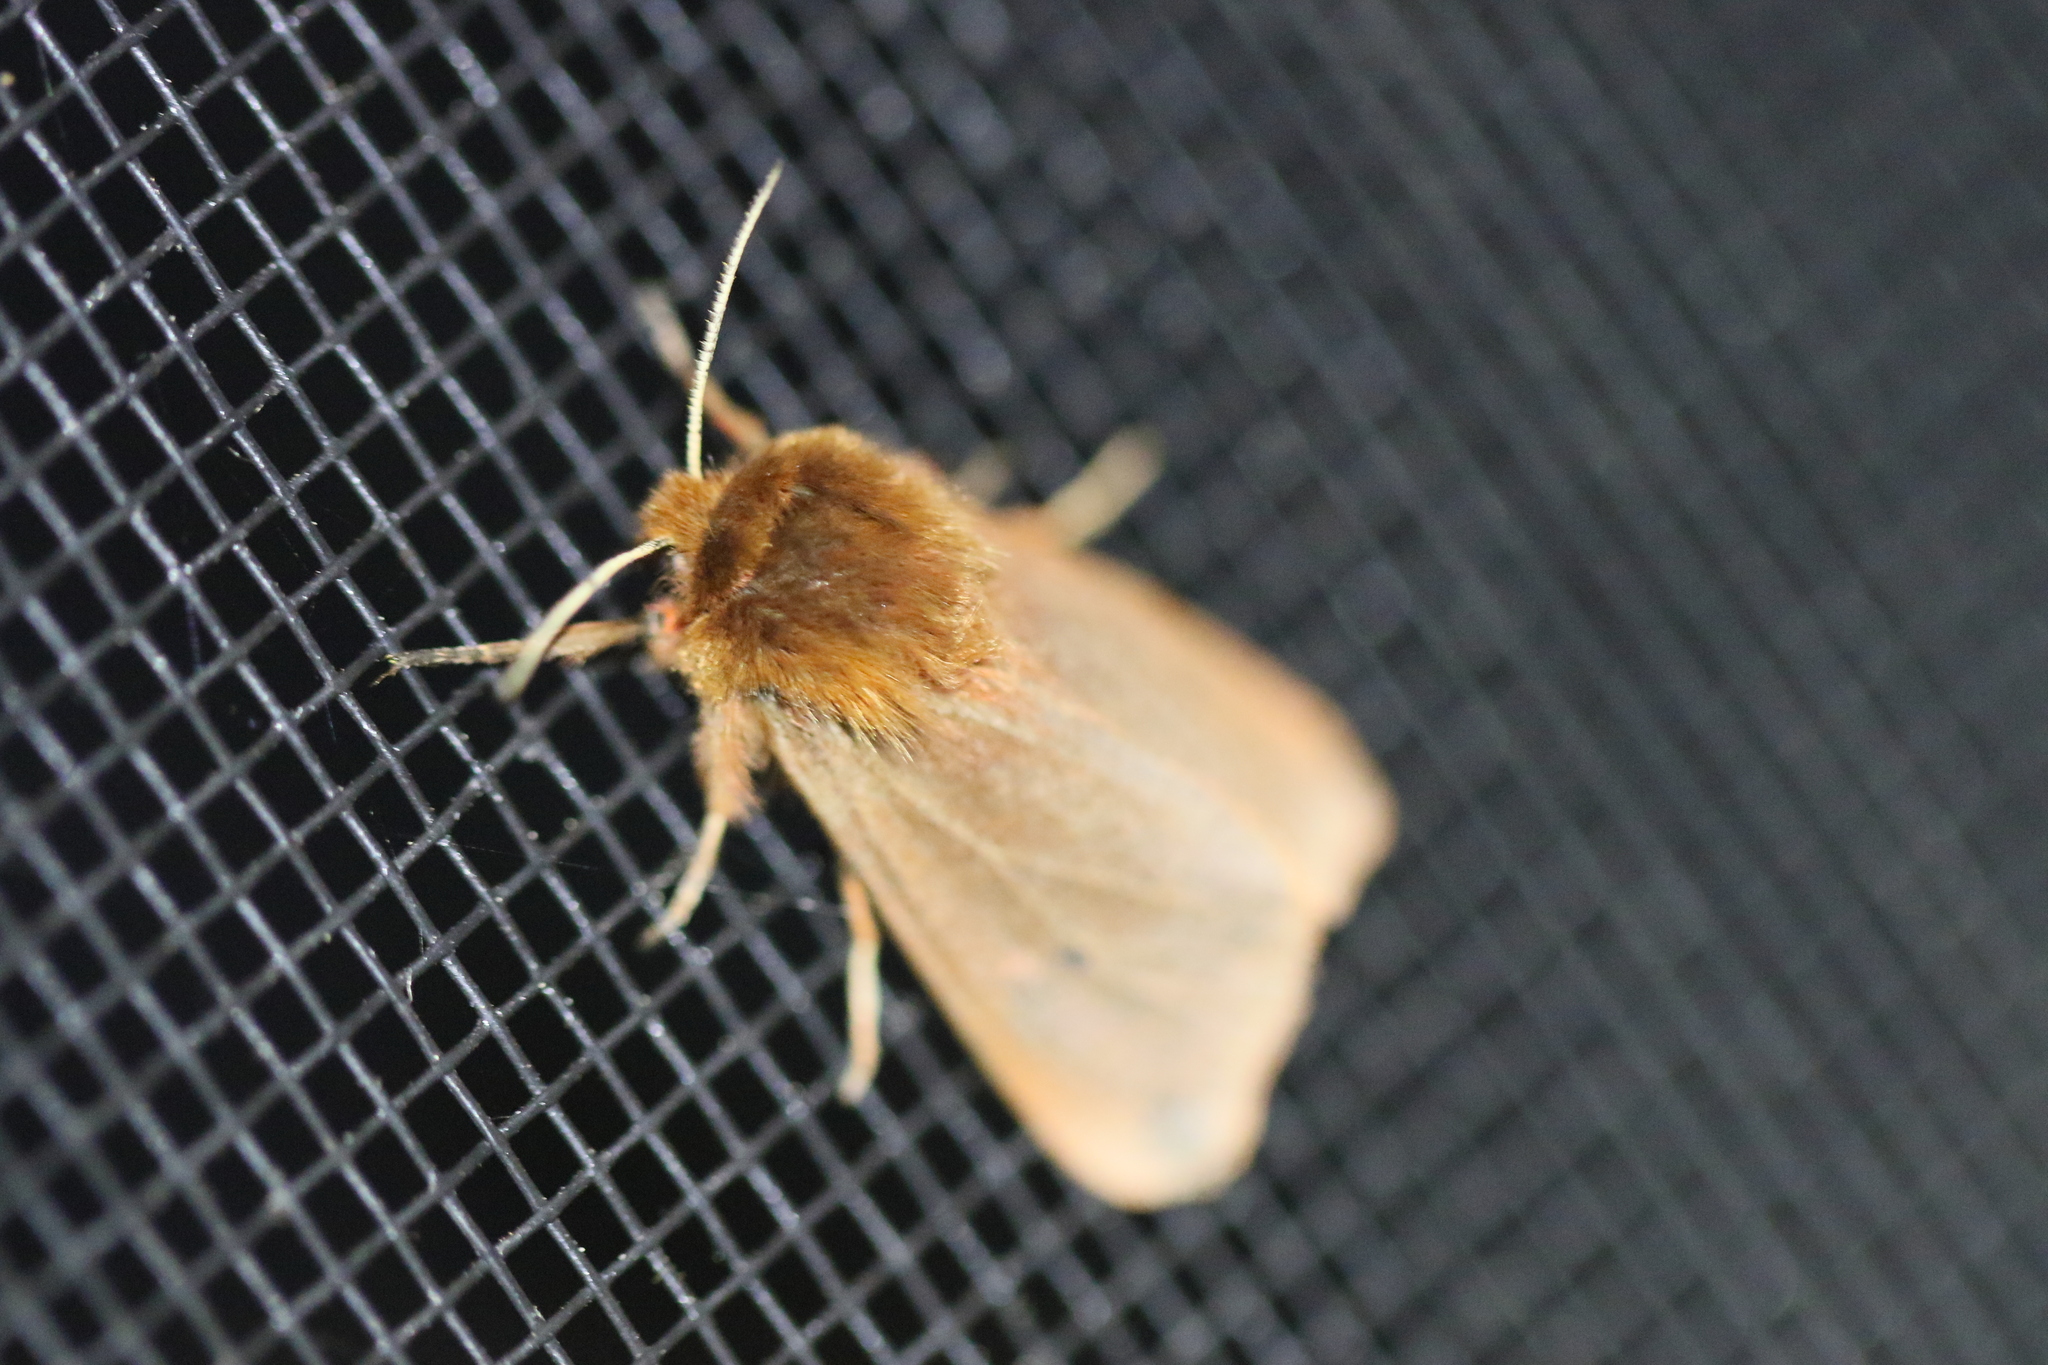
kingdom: Animalia
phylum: Arthropoda
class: Insecta
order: Lepidoptera
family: Erebidae
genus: Phragmatobia
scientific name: Phragmatobia fuliginosa
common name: Ruby tiger
